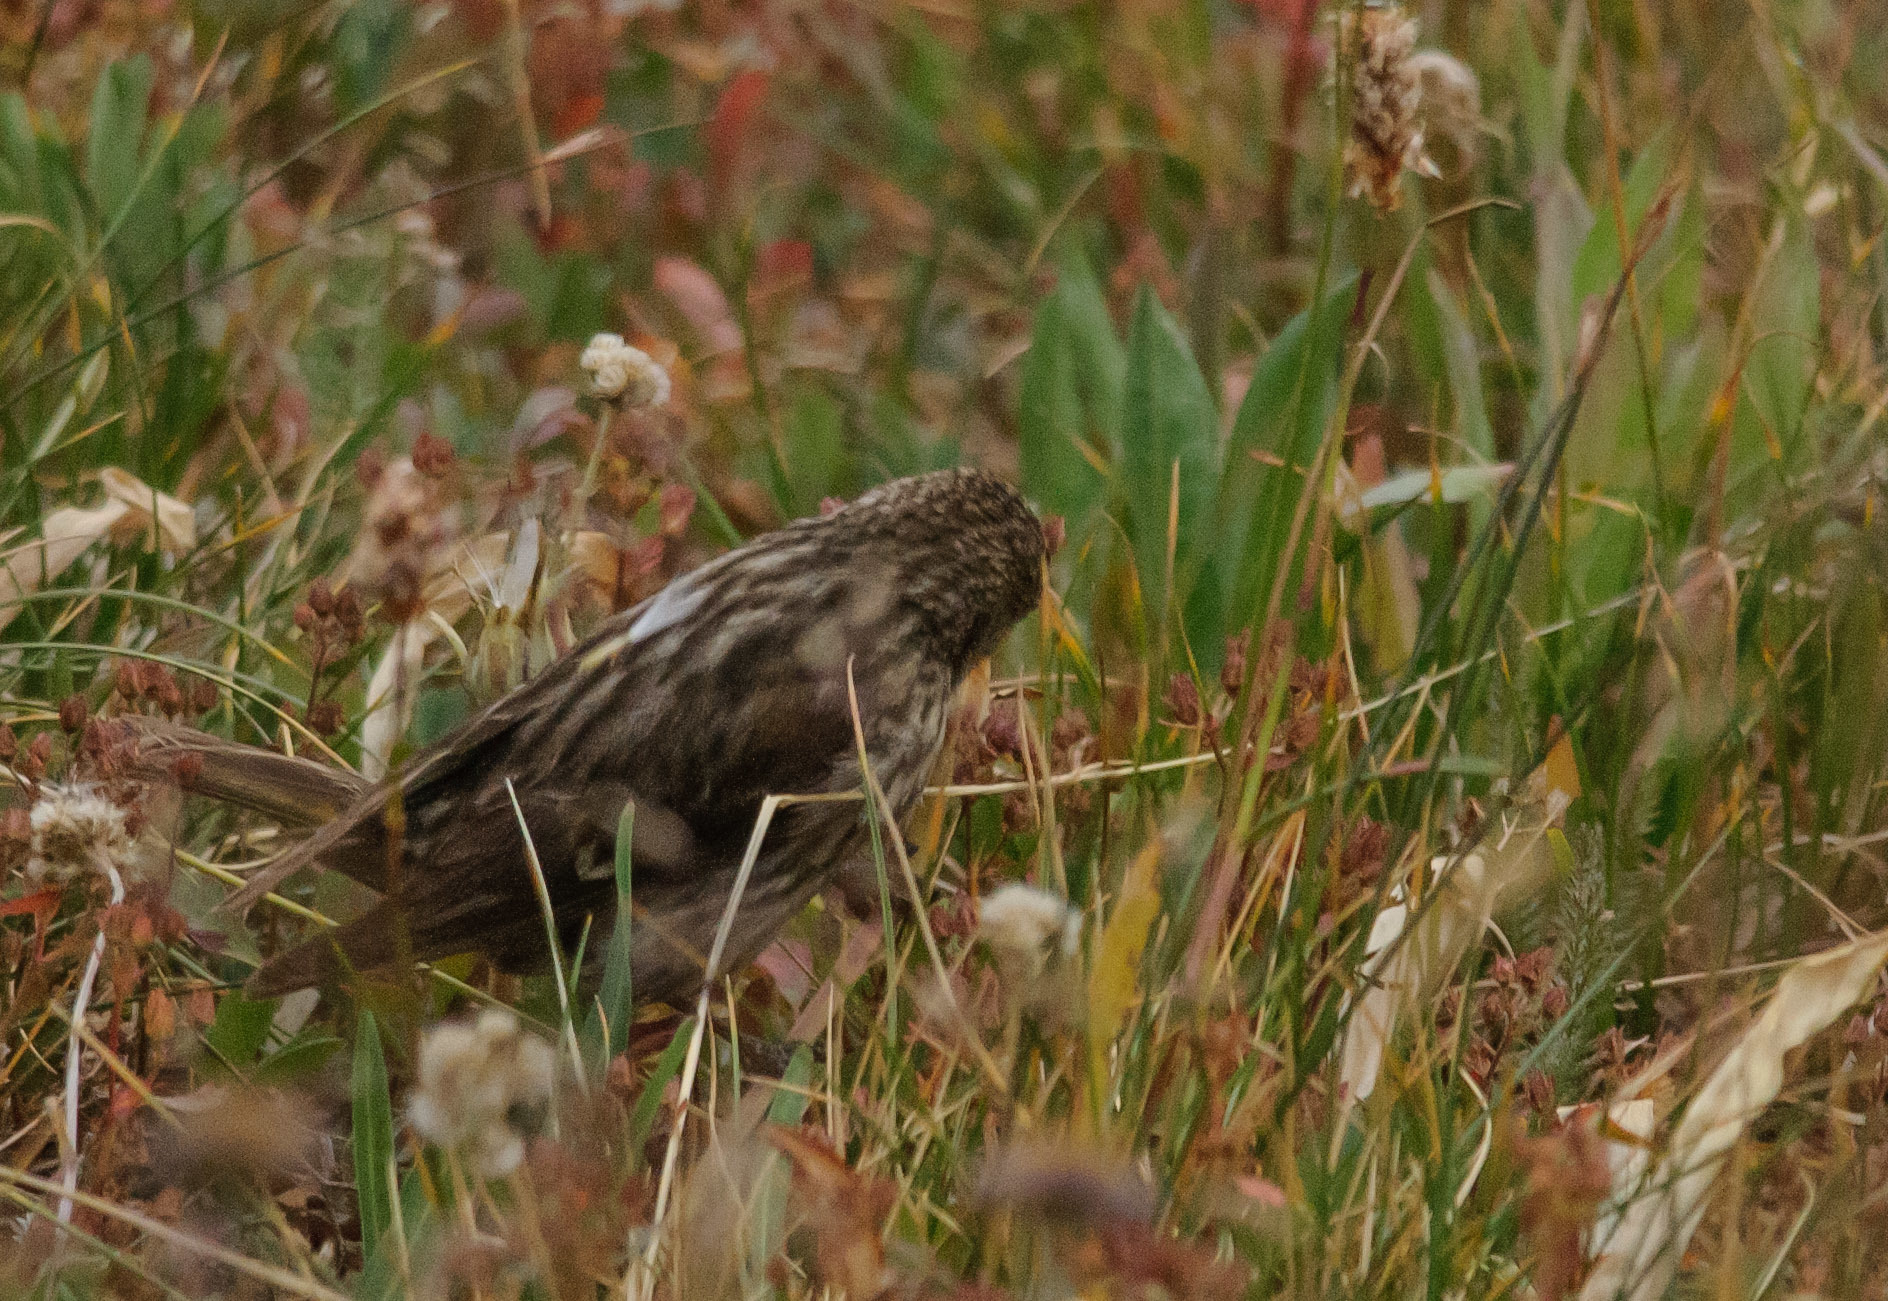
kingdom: Animalia
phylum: Chordata
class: Aves
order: Passeriformes
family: Fringillidae
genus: Haemorhous
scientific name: Haemorhous mexicanus
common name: House finch
